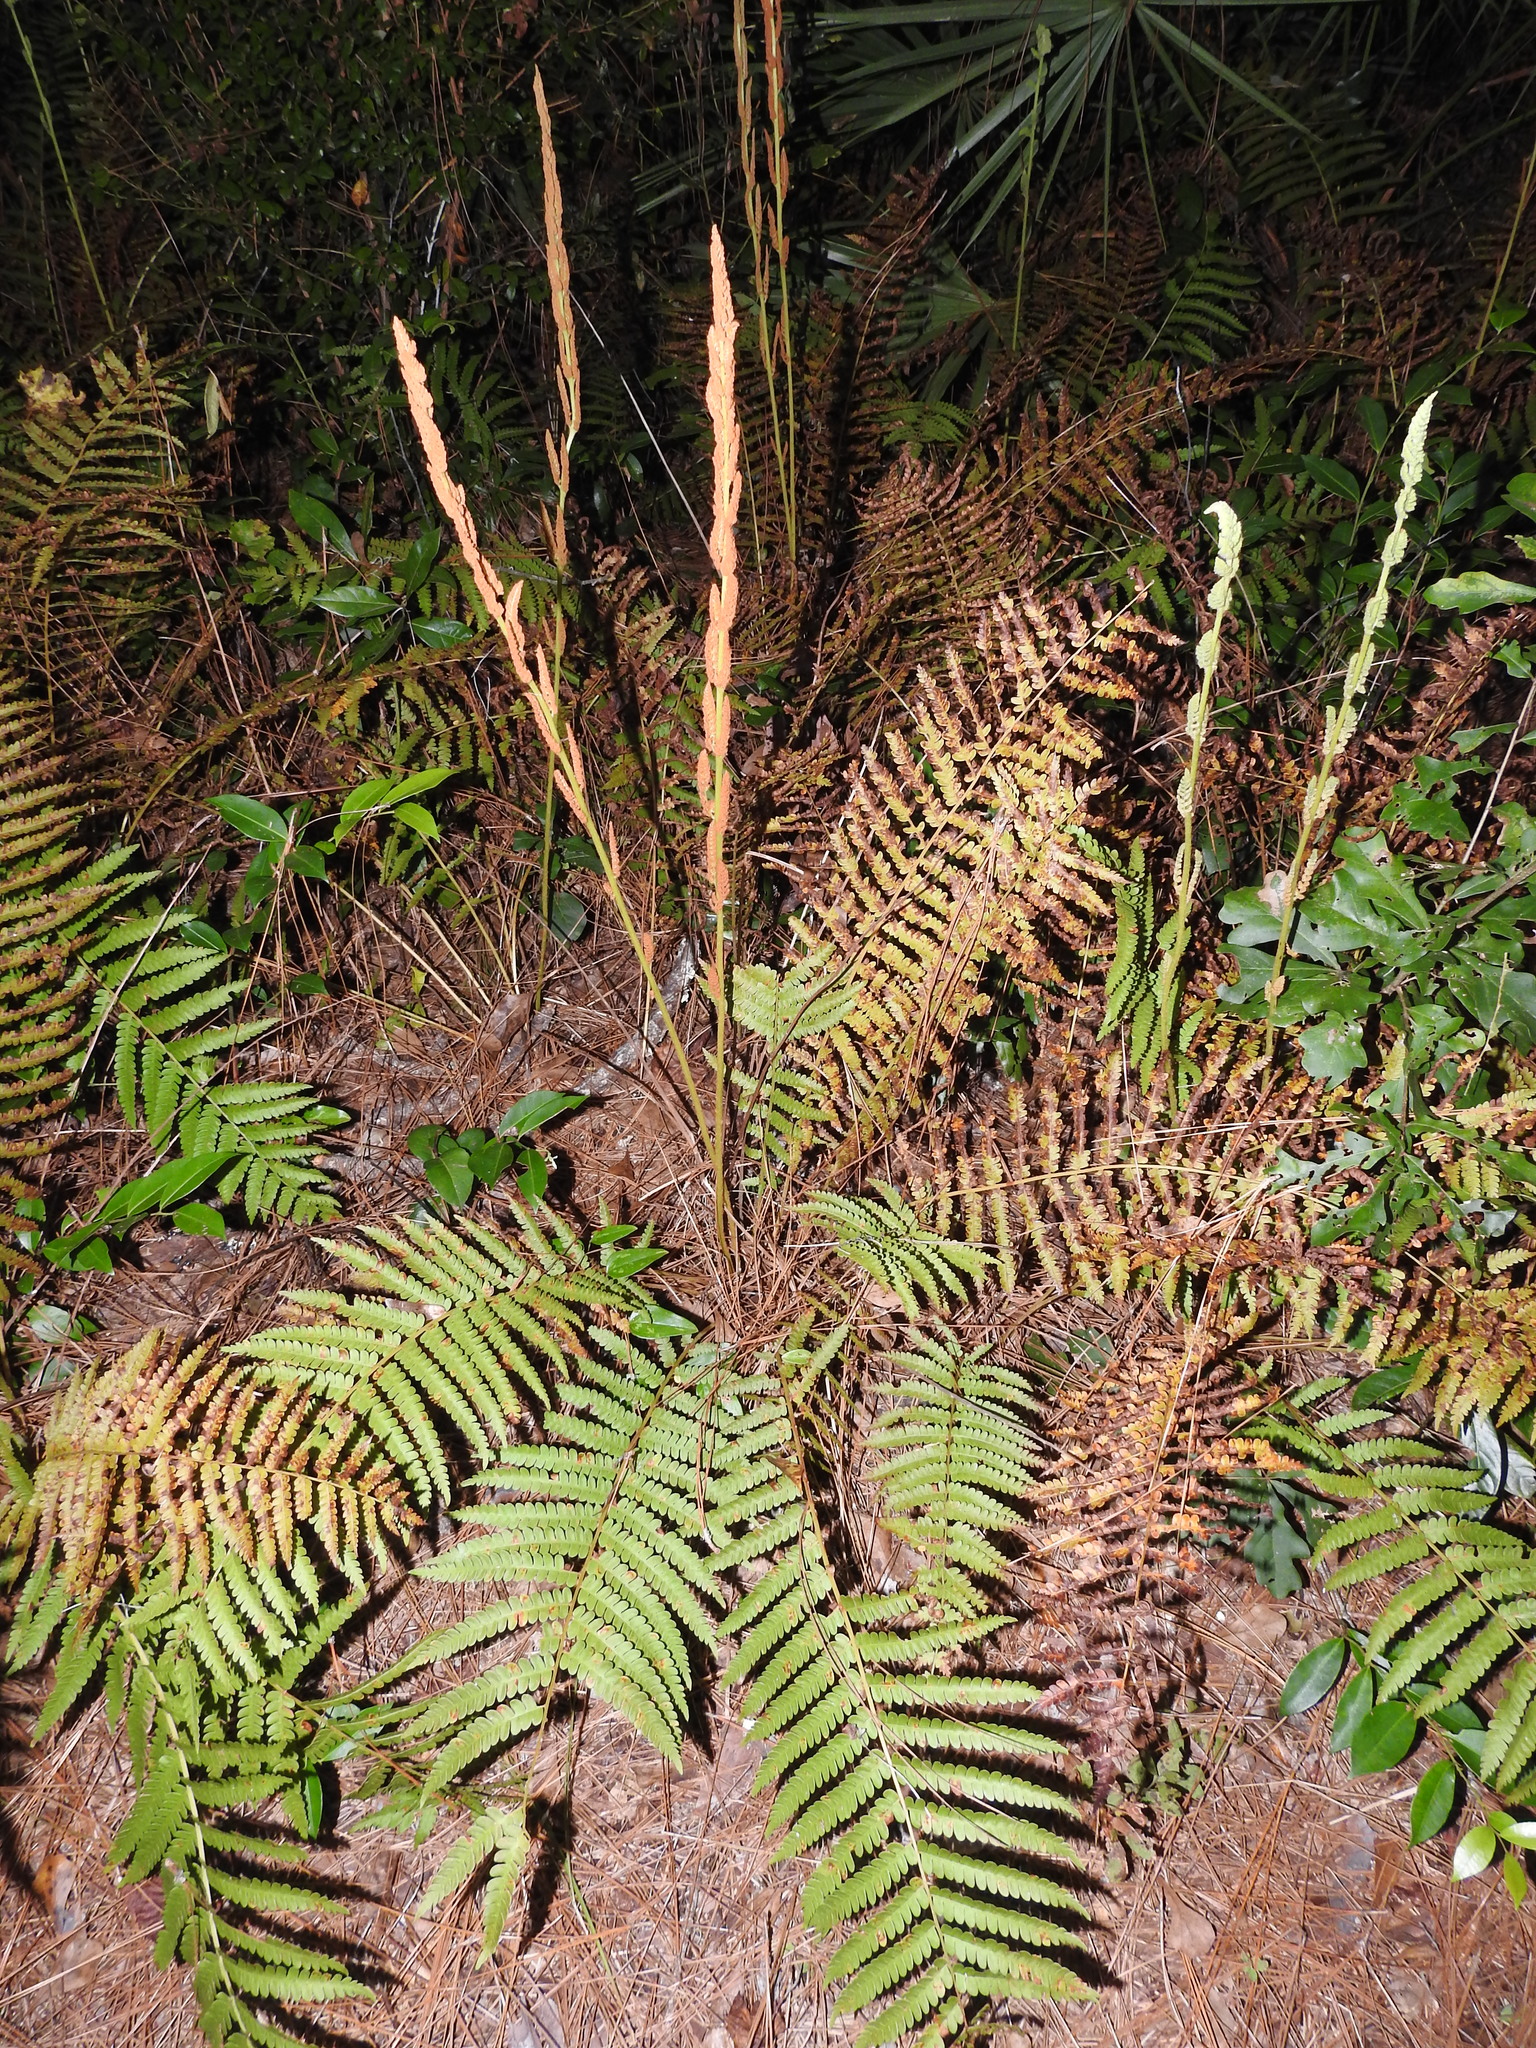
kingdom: Plantae
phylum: Tracheophyta
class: Polypodiopsida
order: Osmundales
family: Osmundaceae
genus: Osmundastrum
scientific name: Osmundastrum cinnamomeum
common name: Cinnamon fern
